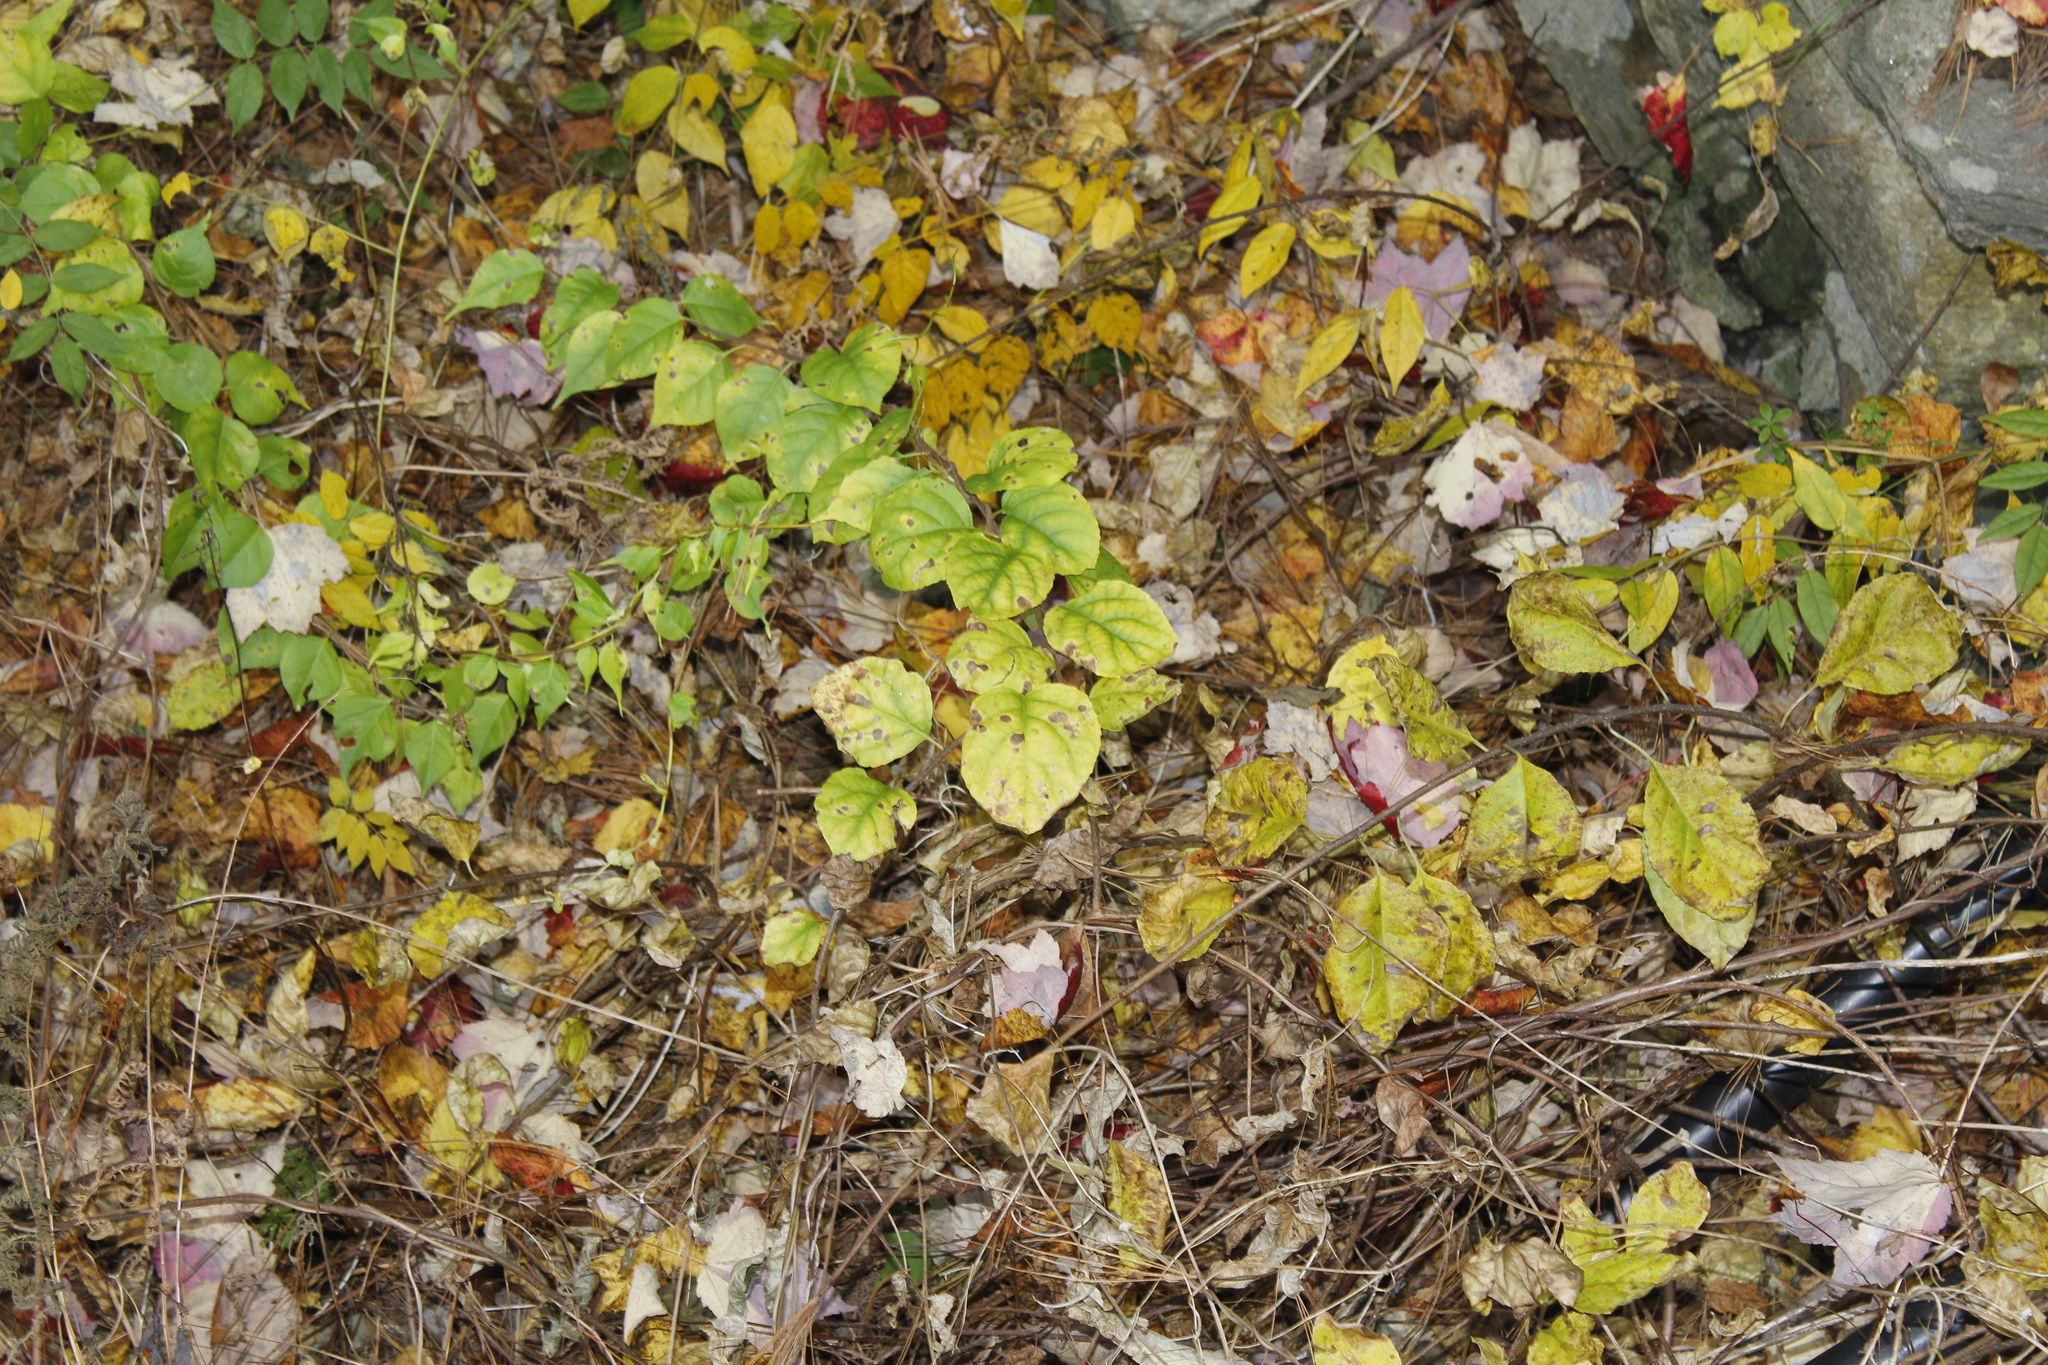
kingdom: Plantae
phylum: Tracheophyta
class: Magnoliopsida
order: Celastrales
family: Celastraceae
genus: Celastrus
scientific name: Celastrus orbiculatus
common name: Oriental bittersweet
